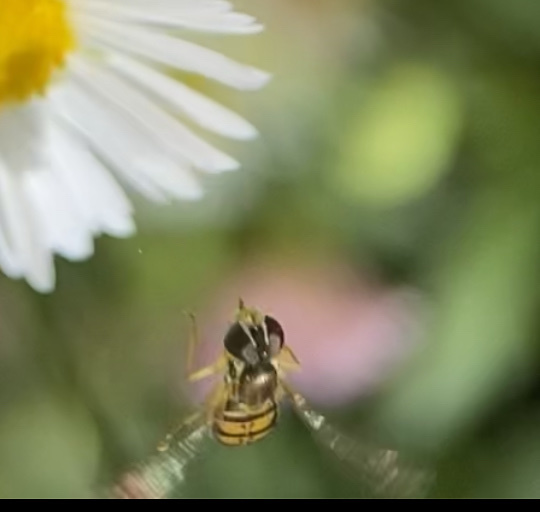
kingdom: Animalia
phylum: Arthropoda
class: Insecta
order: Diptera
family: Syrphidae
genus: Toxomerus
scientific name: Toxomerus marginatus
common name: Syrphid fly
